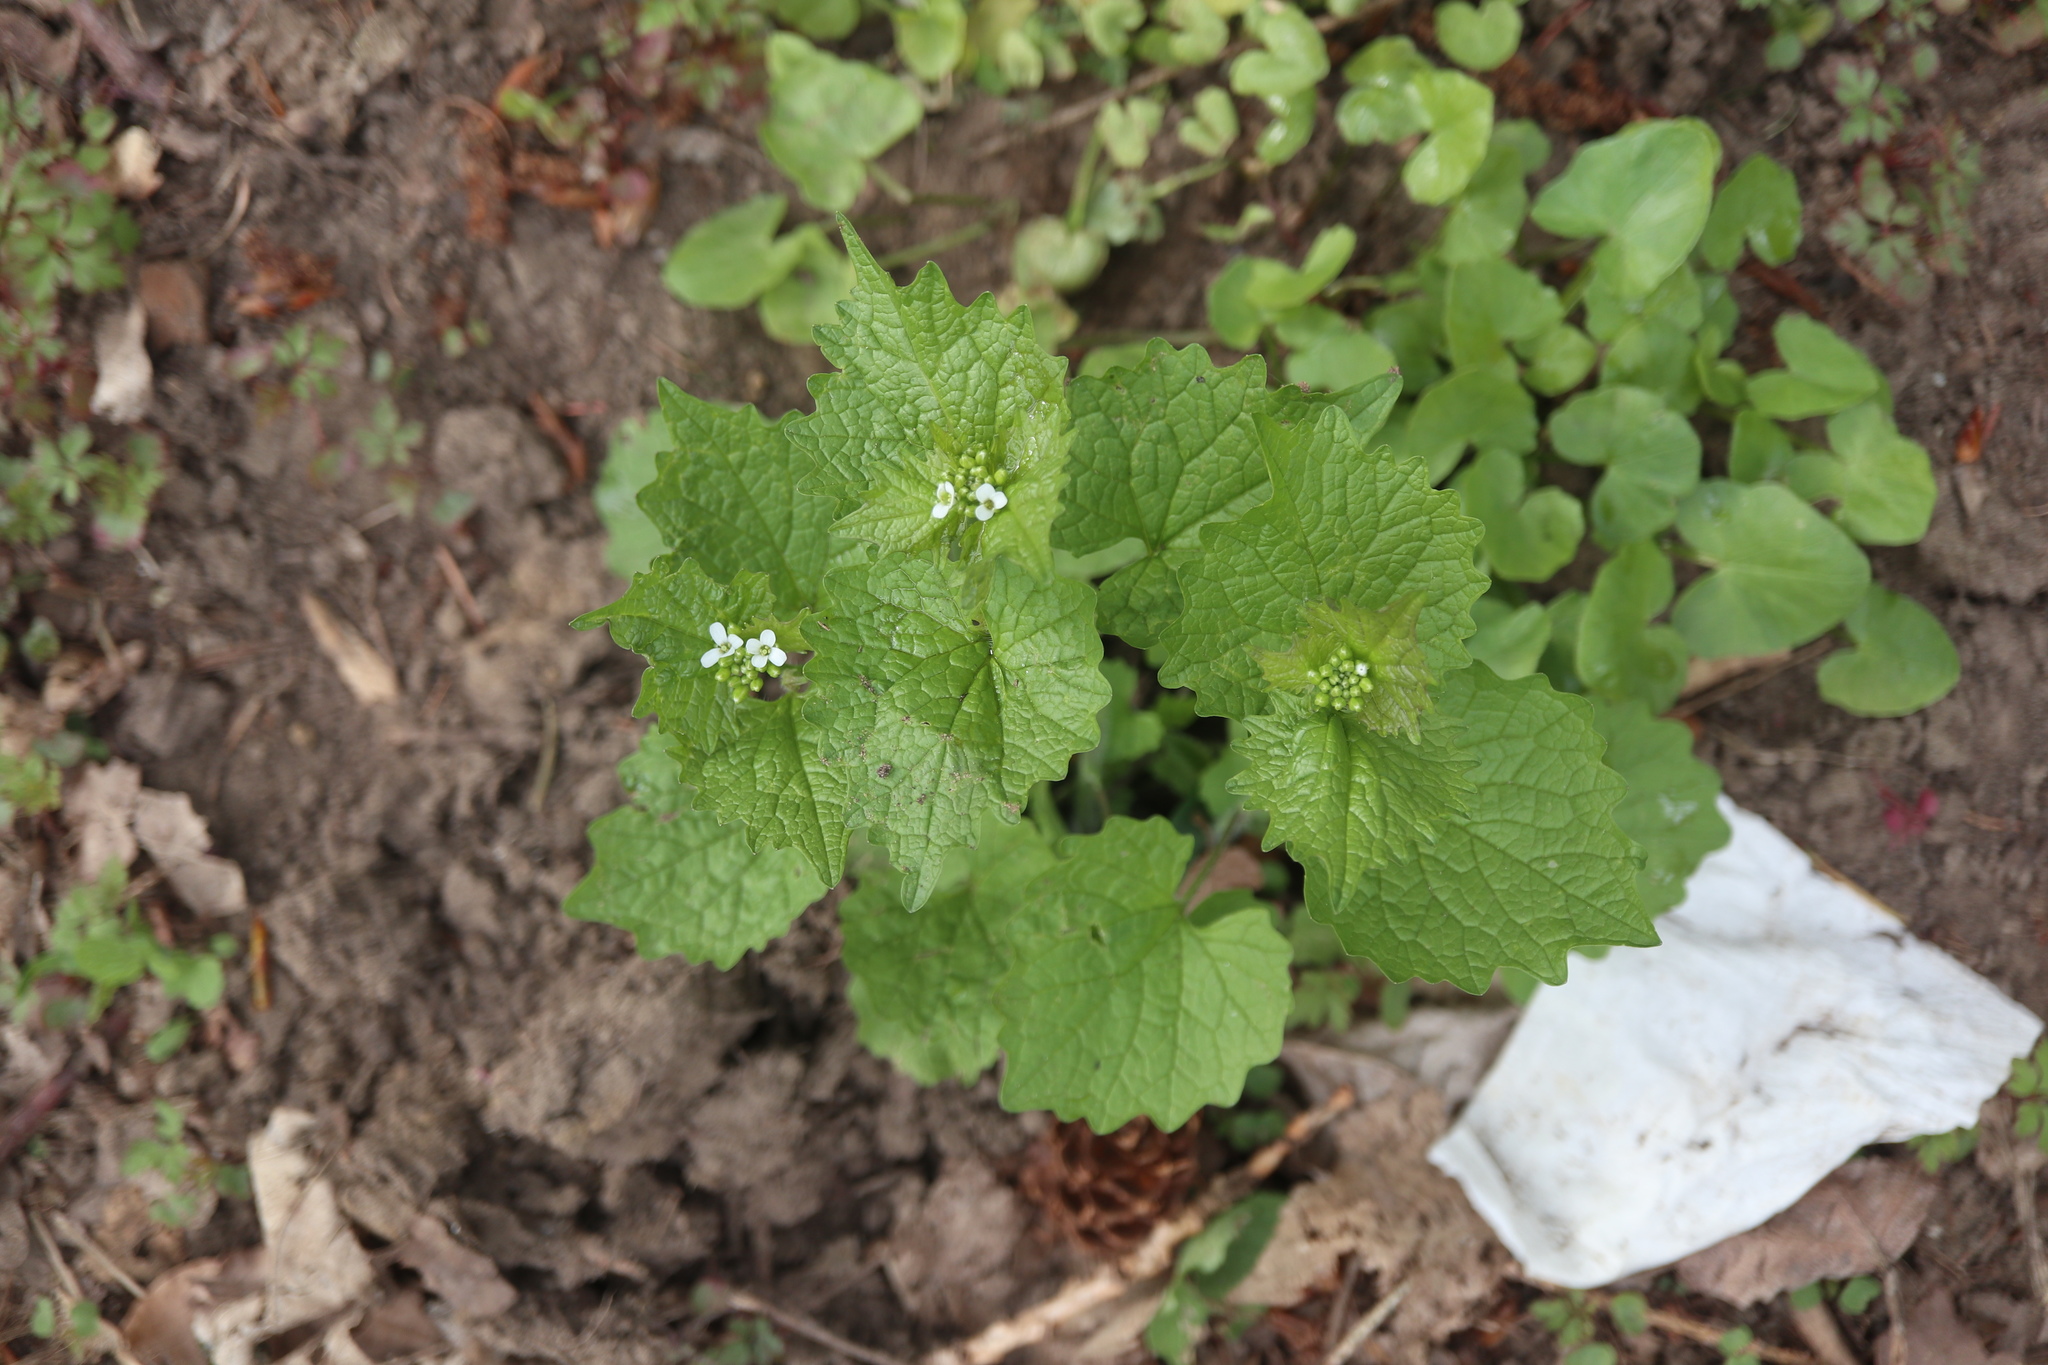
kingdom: Plantae
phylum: Tracheophyta
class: Magnoliopsida
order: Brassicales
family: Brassicaceae
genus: Alliaria
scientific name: Alliaria petiolata
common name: Garlic mustard
